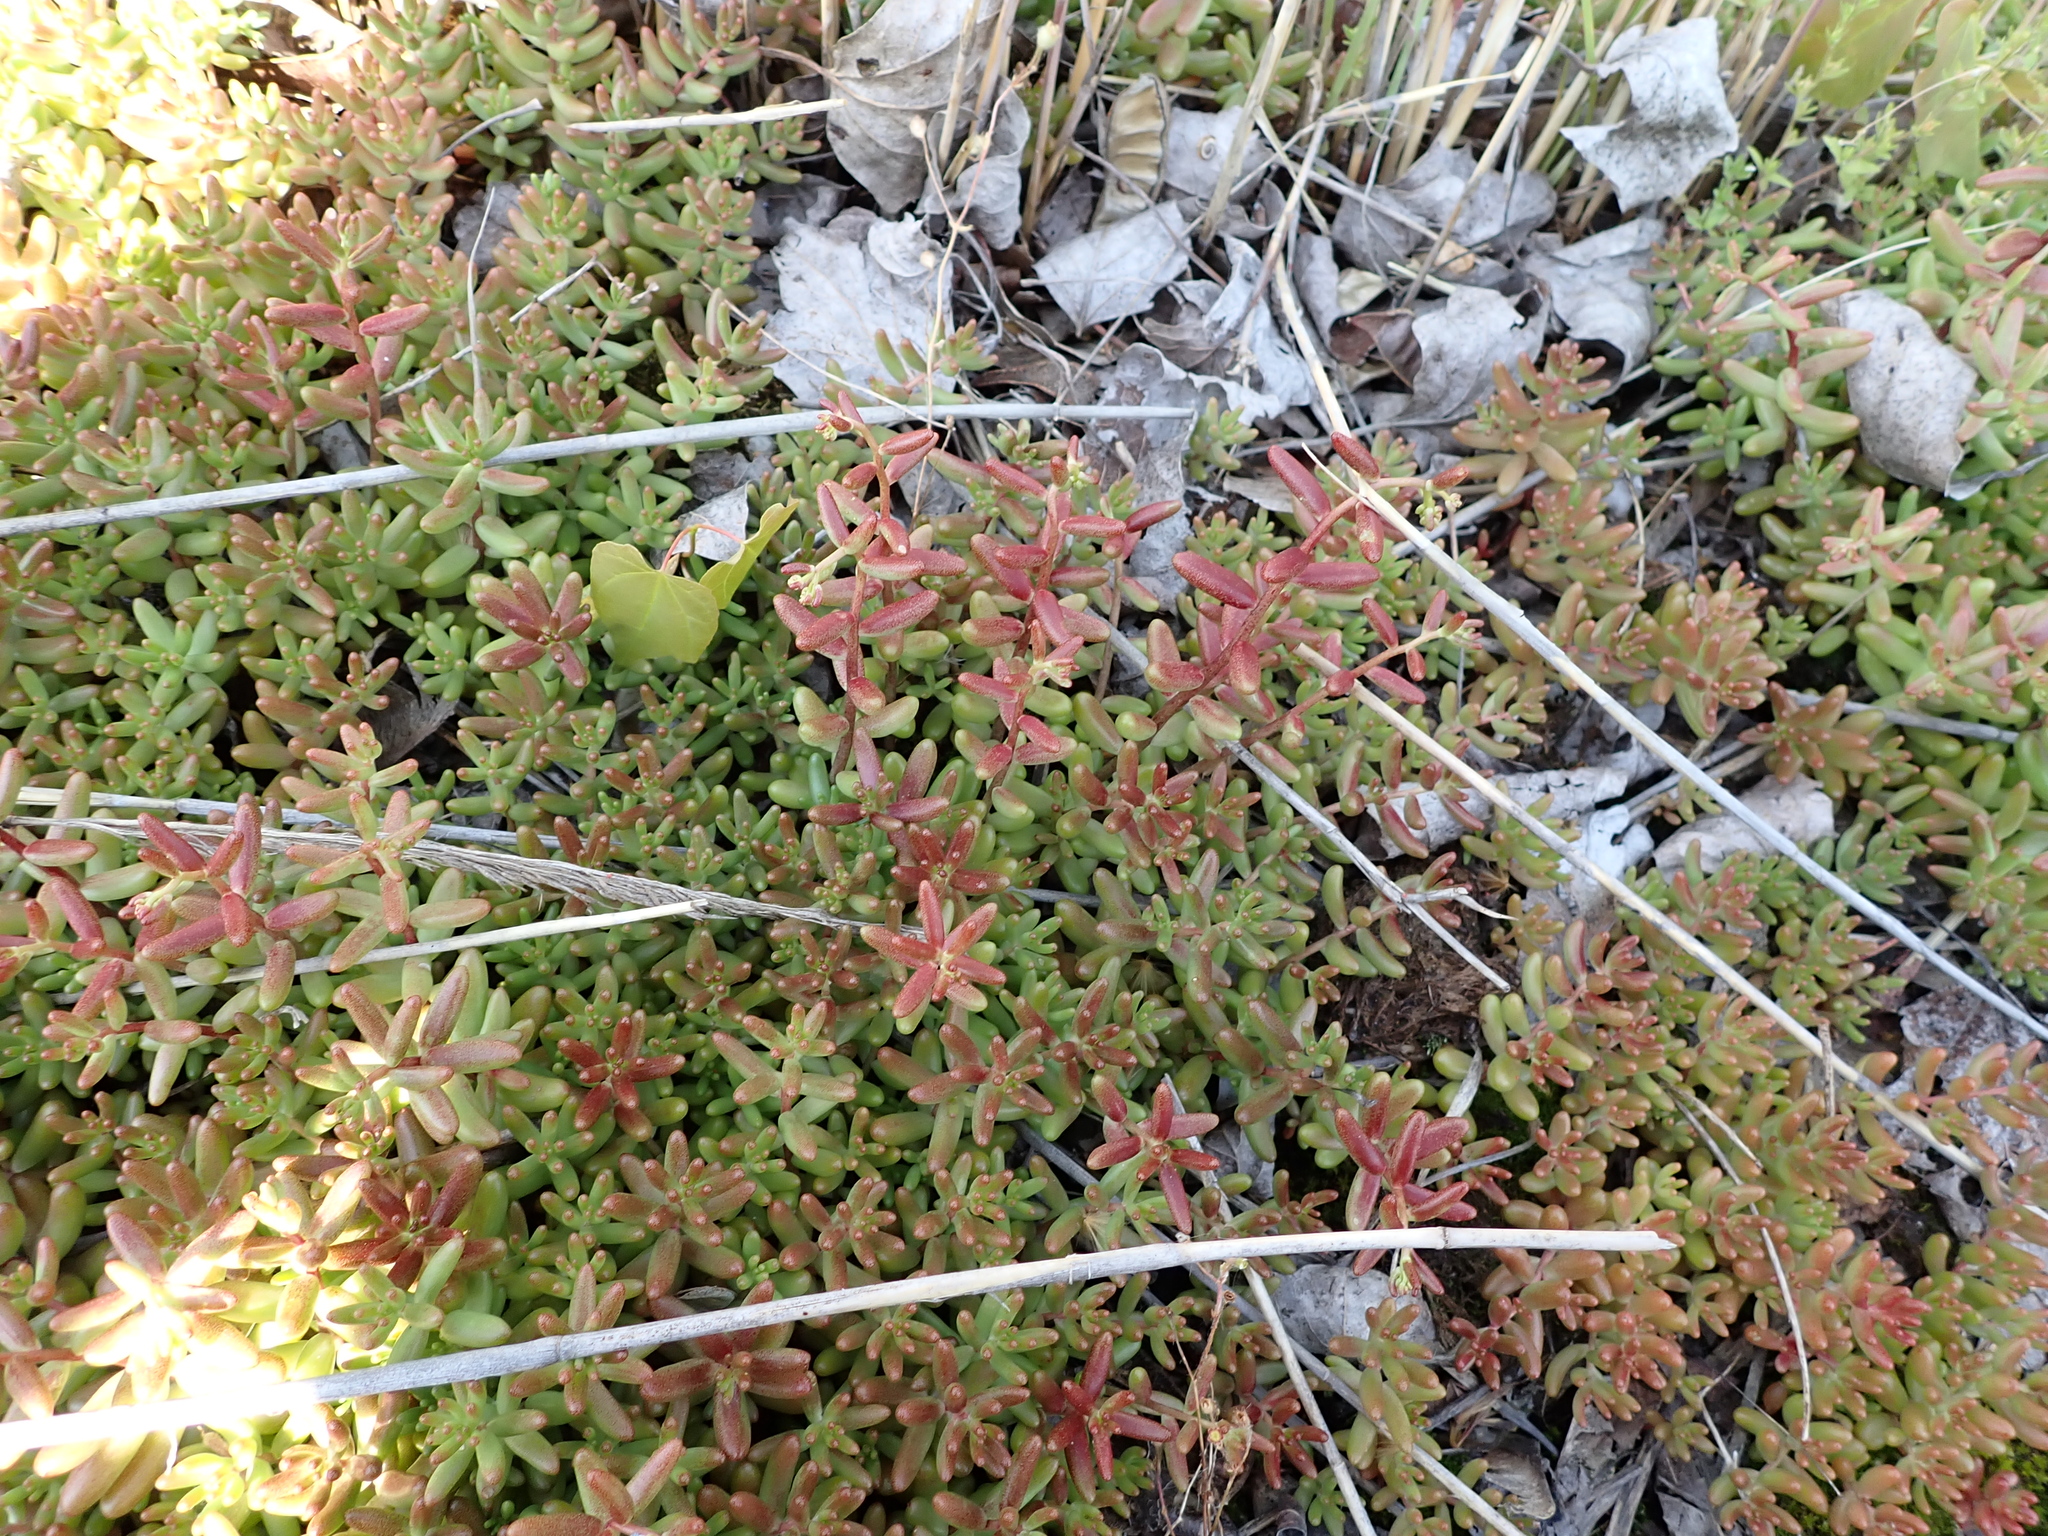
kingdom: Plantae
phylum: Tracheophyta
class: Magnoliopsida
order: Saxifragales
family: Crassulaceae
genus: Sedum
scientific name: Sedum album
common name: White stonecrop
